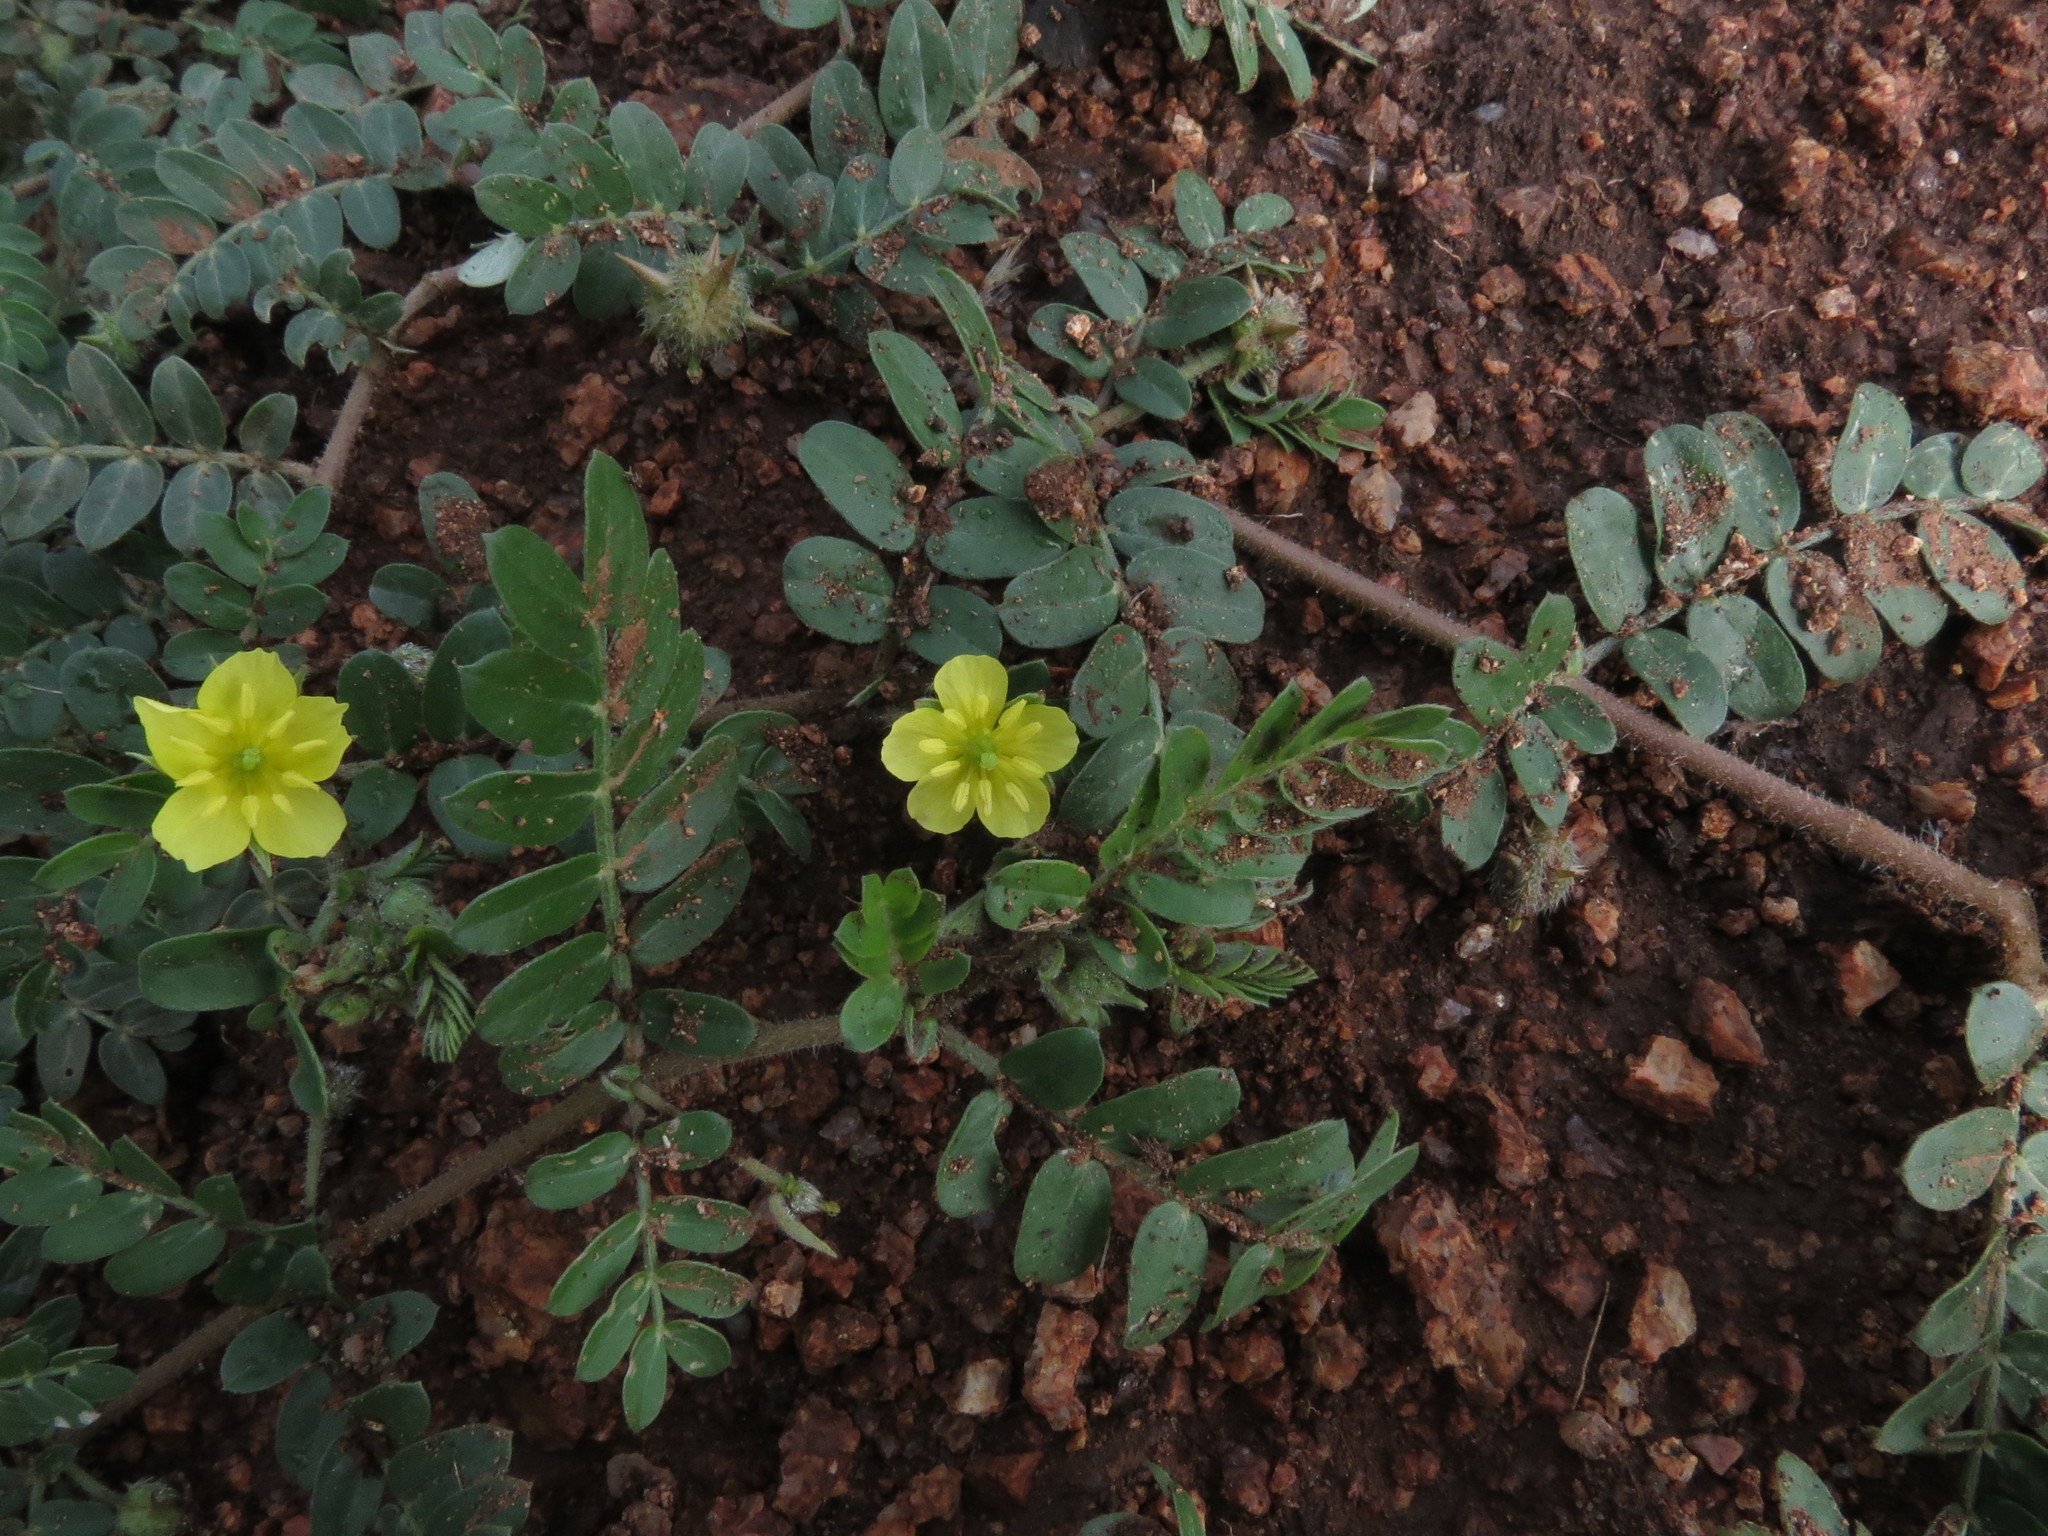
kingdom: Plantae
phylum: Tracheophyta
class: Magnoliopsida
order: Zygophyllales
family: Zygophyllaceae
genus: Tribulus
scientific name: Tribulus terrestris
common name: Puncturevine
